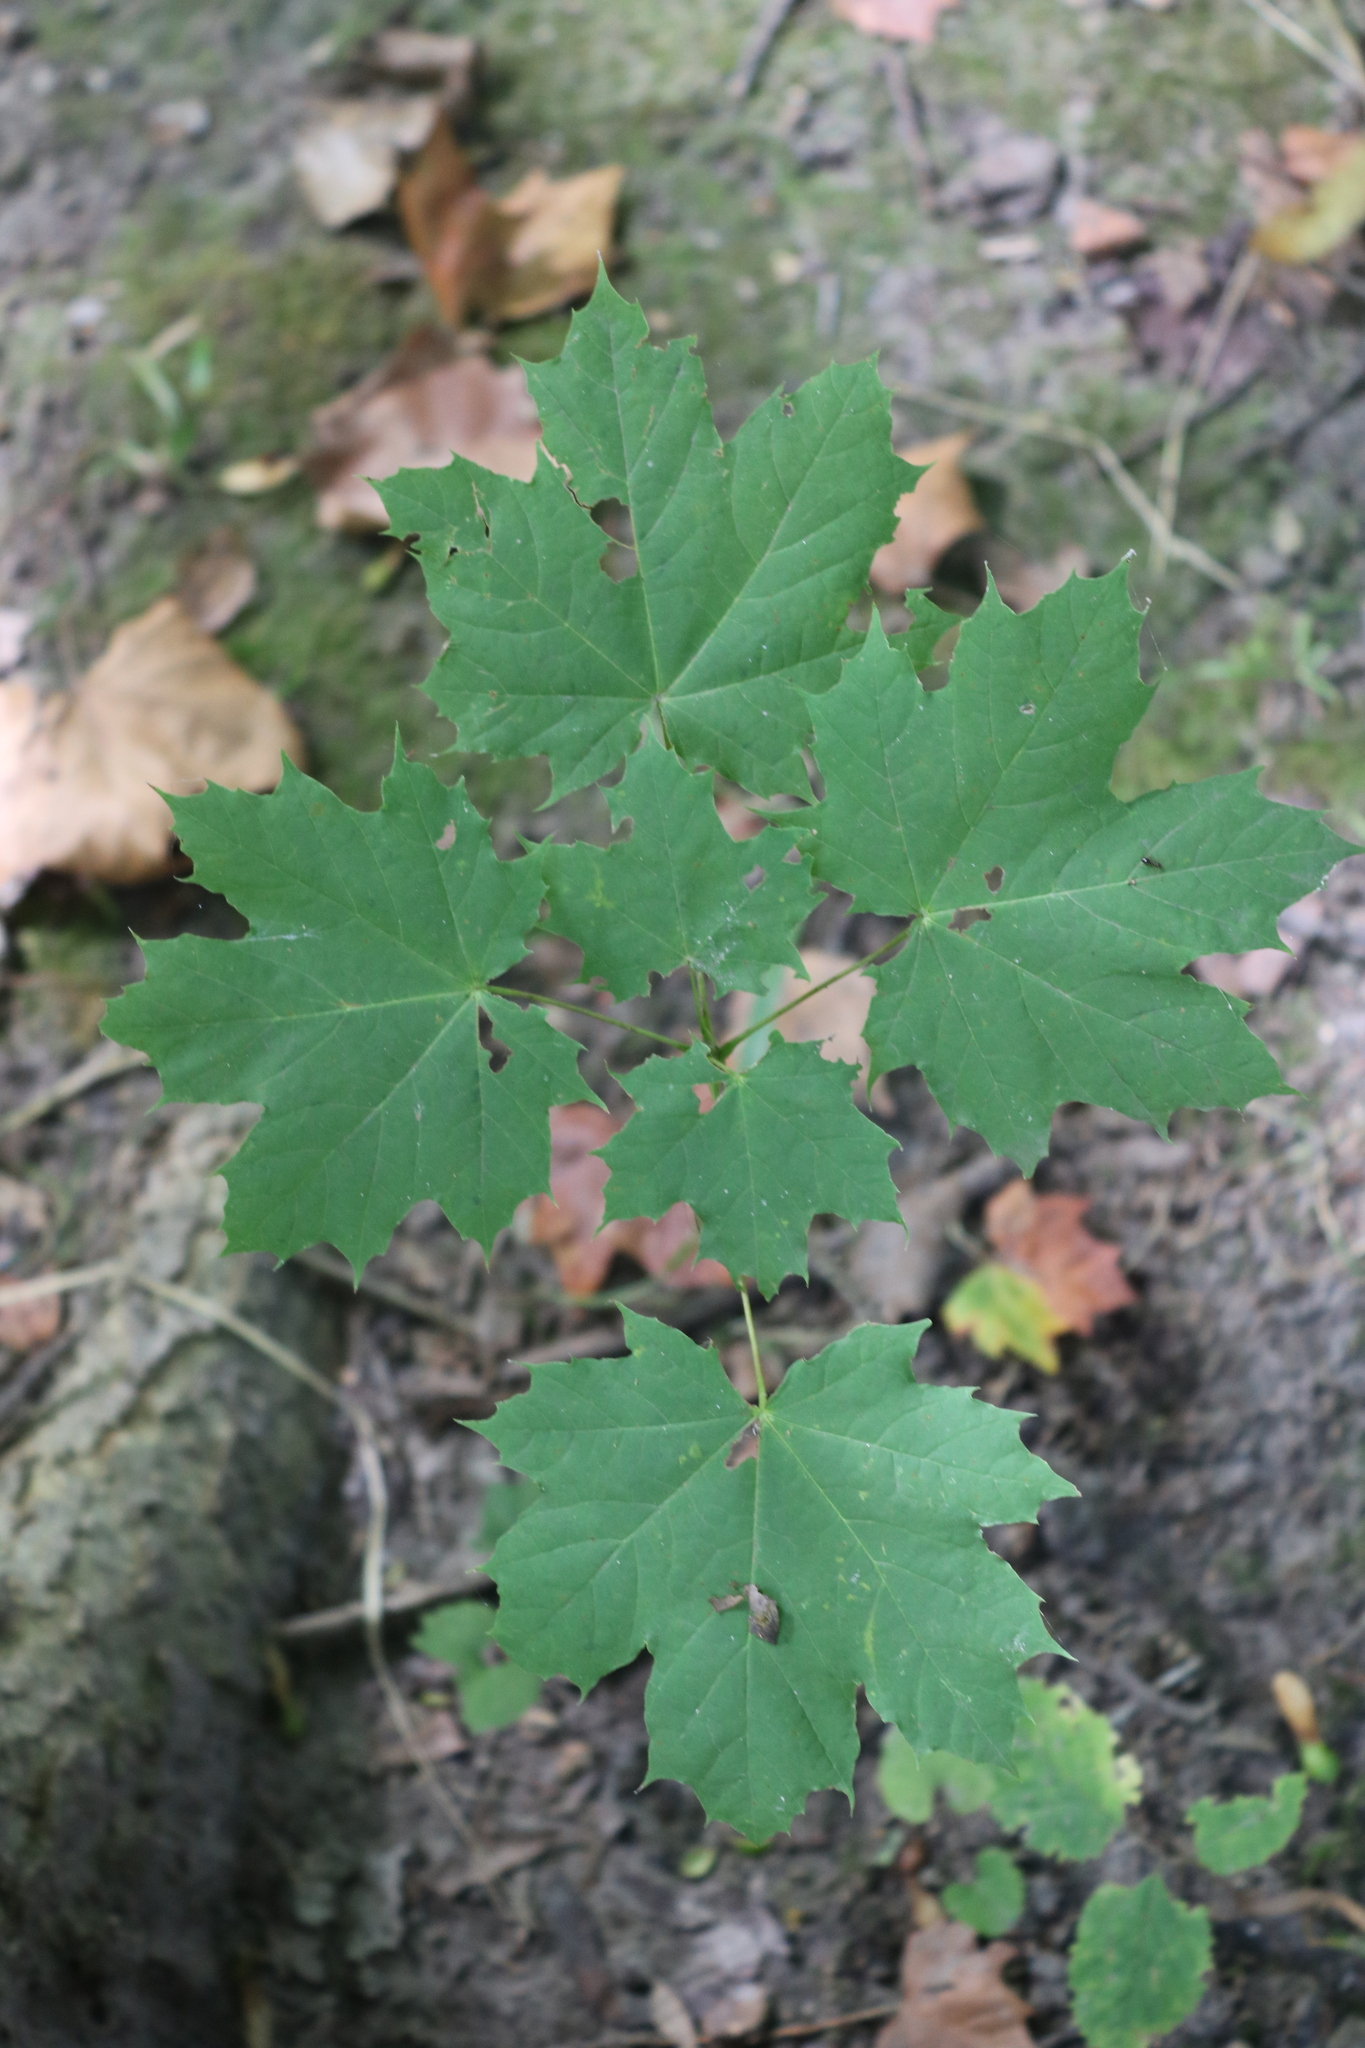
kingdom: Plantae
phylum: Tracheophyta
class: Magnoliopsida
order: Sapindales
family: Sapindaceae
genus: Acer
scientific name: Acer platanoides
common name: Norway maple
